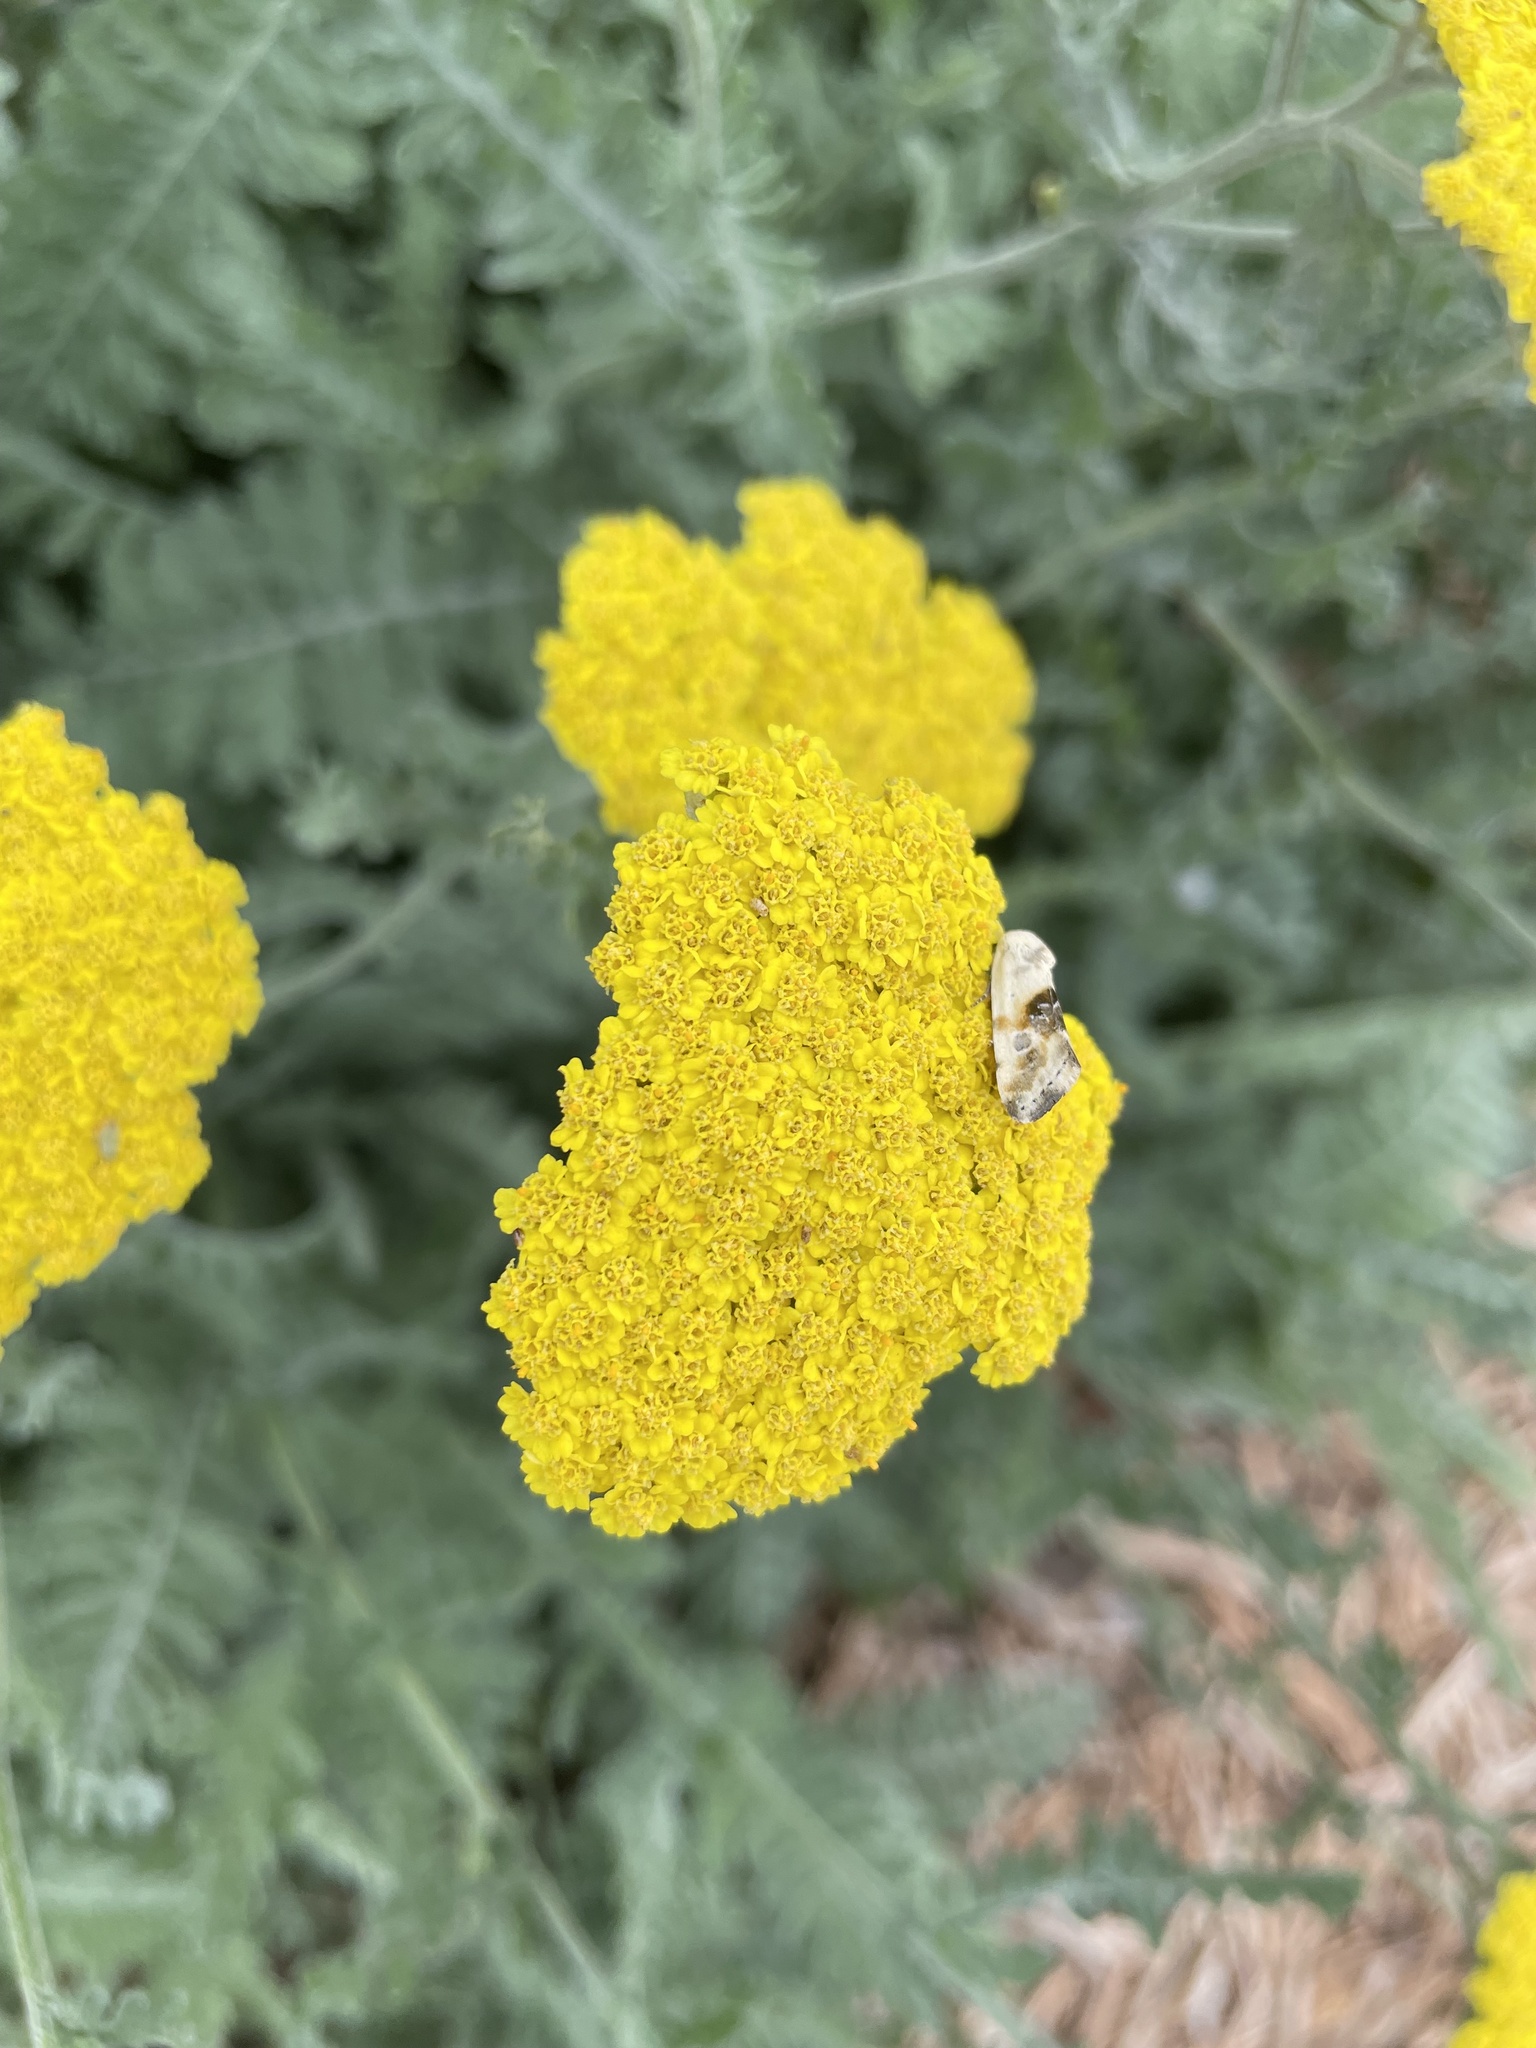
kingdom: Animalia
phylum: Arthropoda
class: Insecta
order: Lepidoptera
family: Noctuidae
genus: Acontia
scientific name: Acontia candefacta
